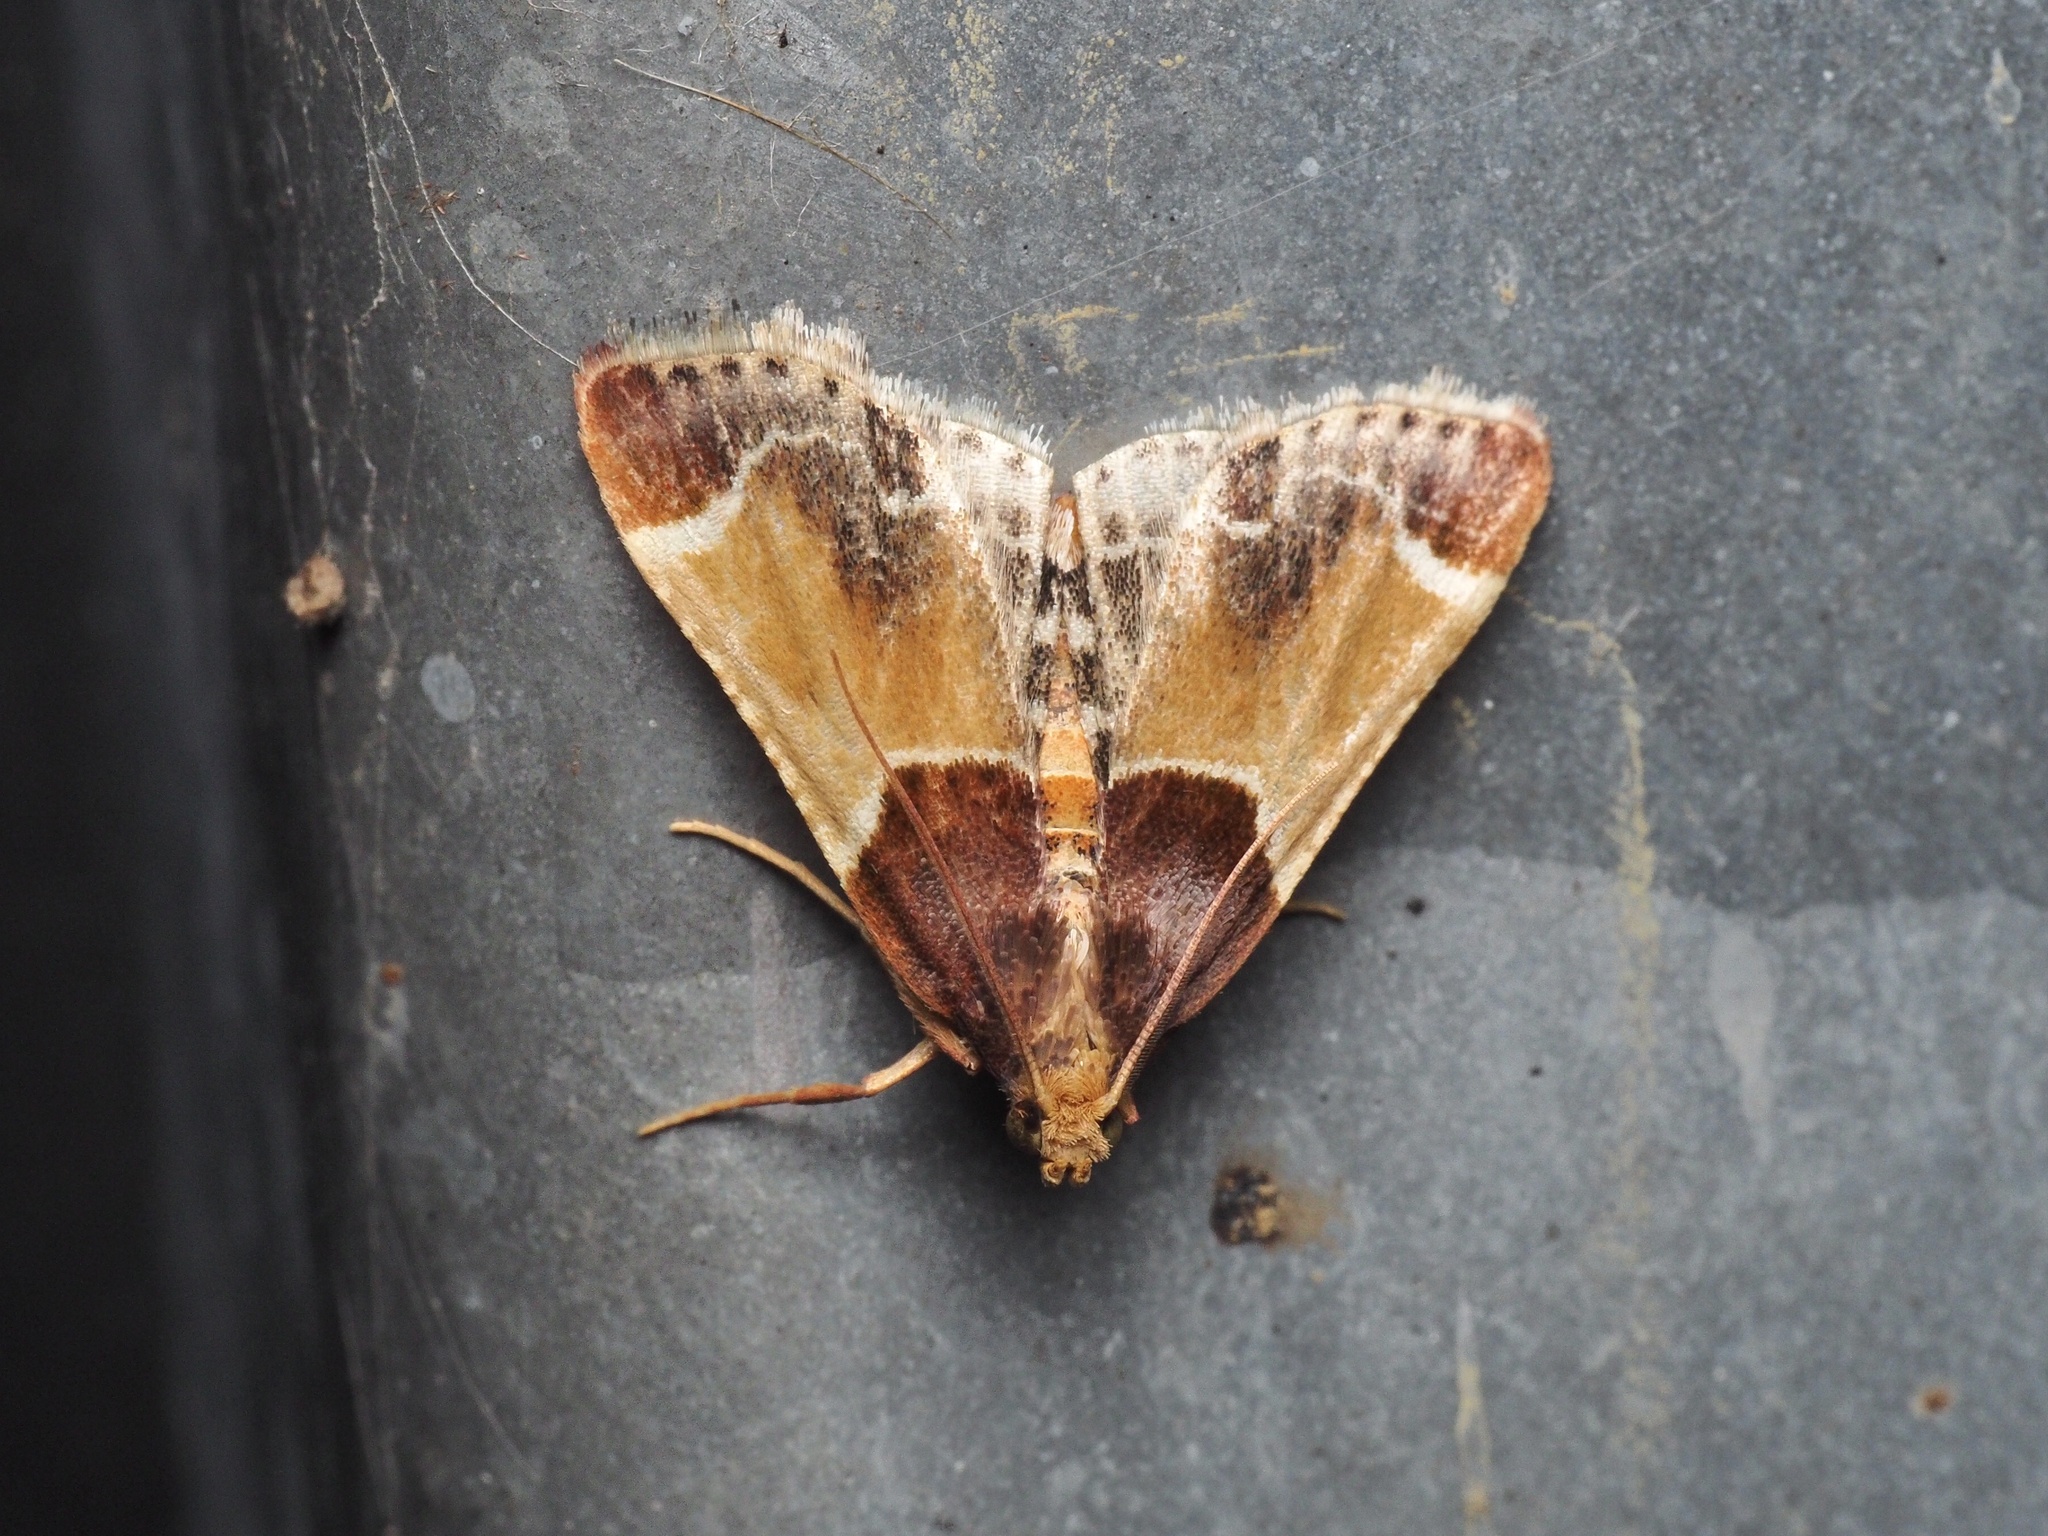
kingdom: Animalia
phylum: Arthropoda
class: Insecta
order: Lepidoptera
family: Pyralidae
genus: Pyralis
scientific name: Pyralis farinalis
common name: Meal moth
